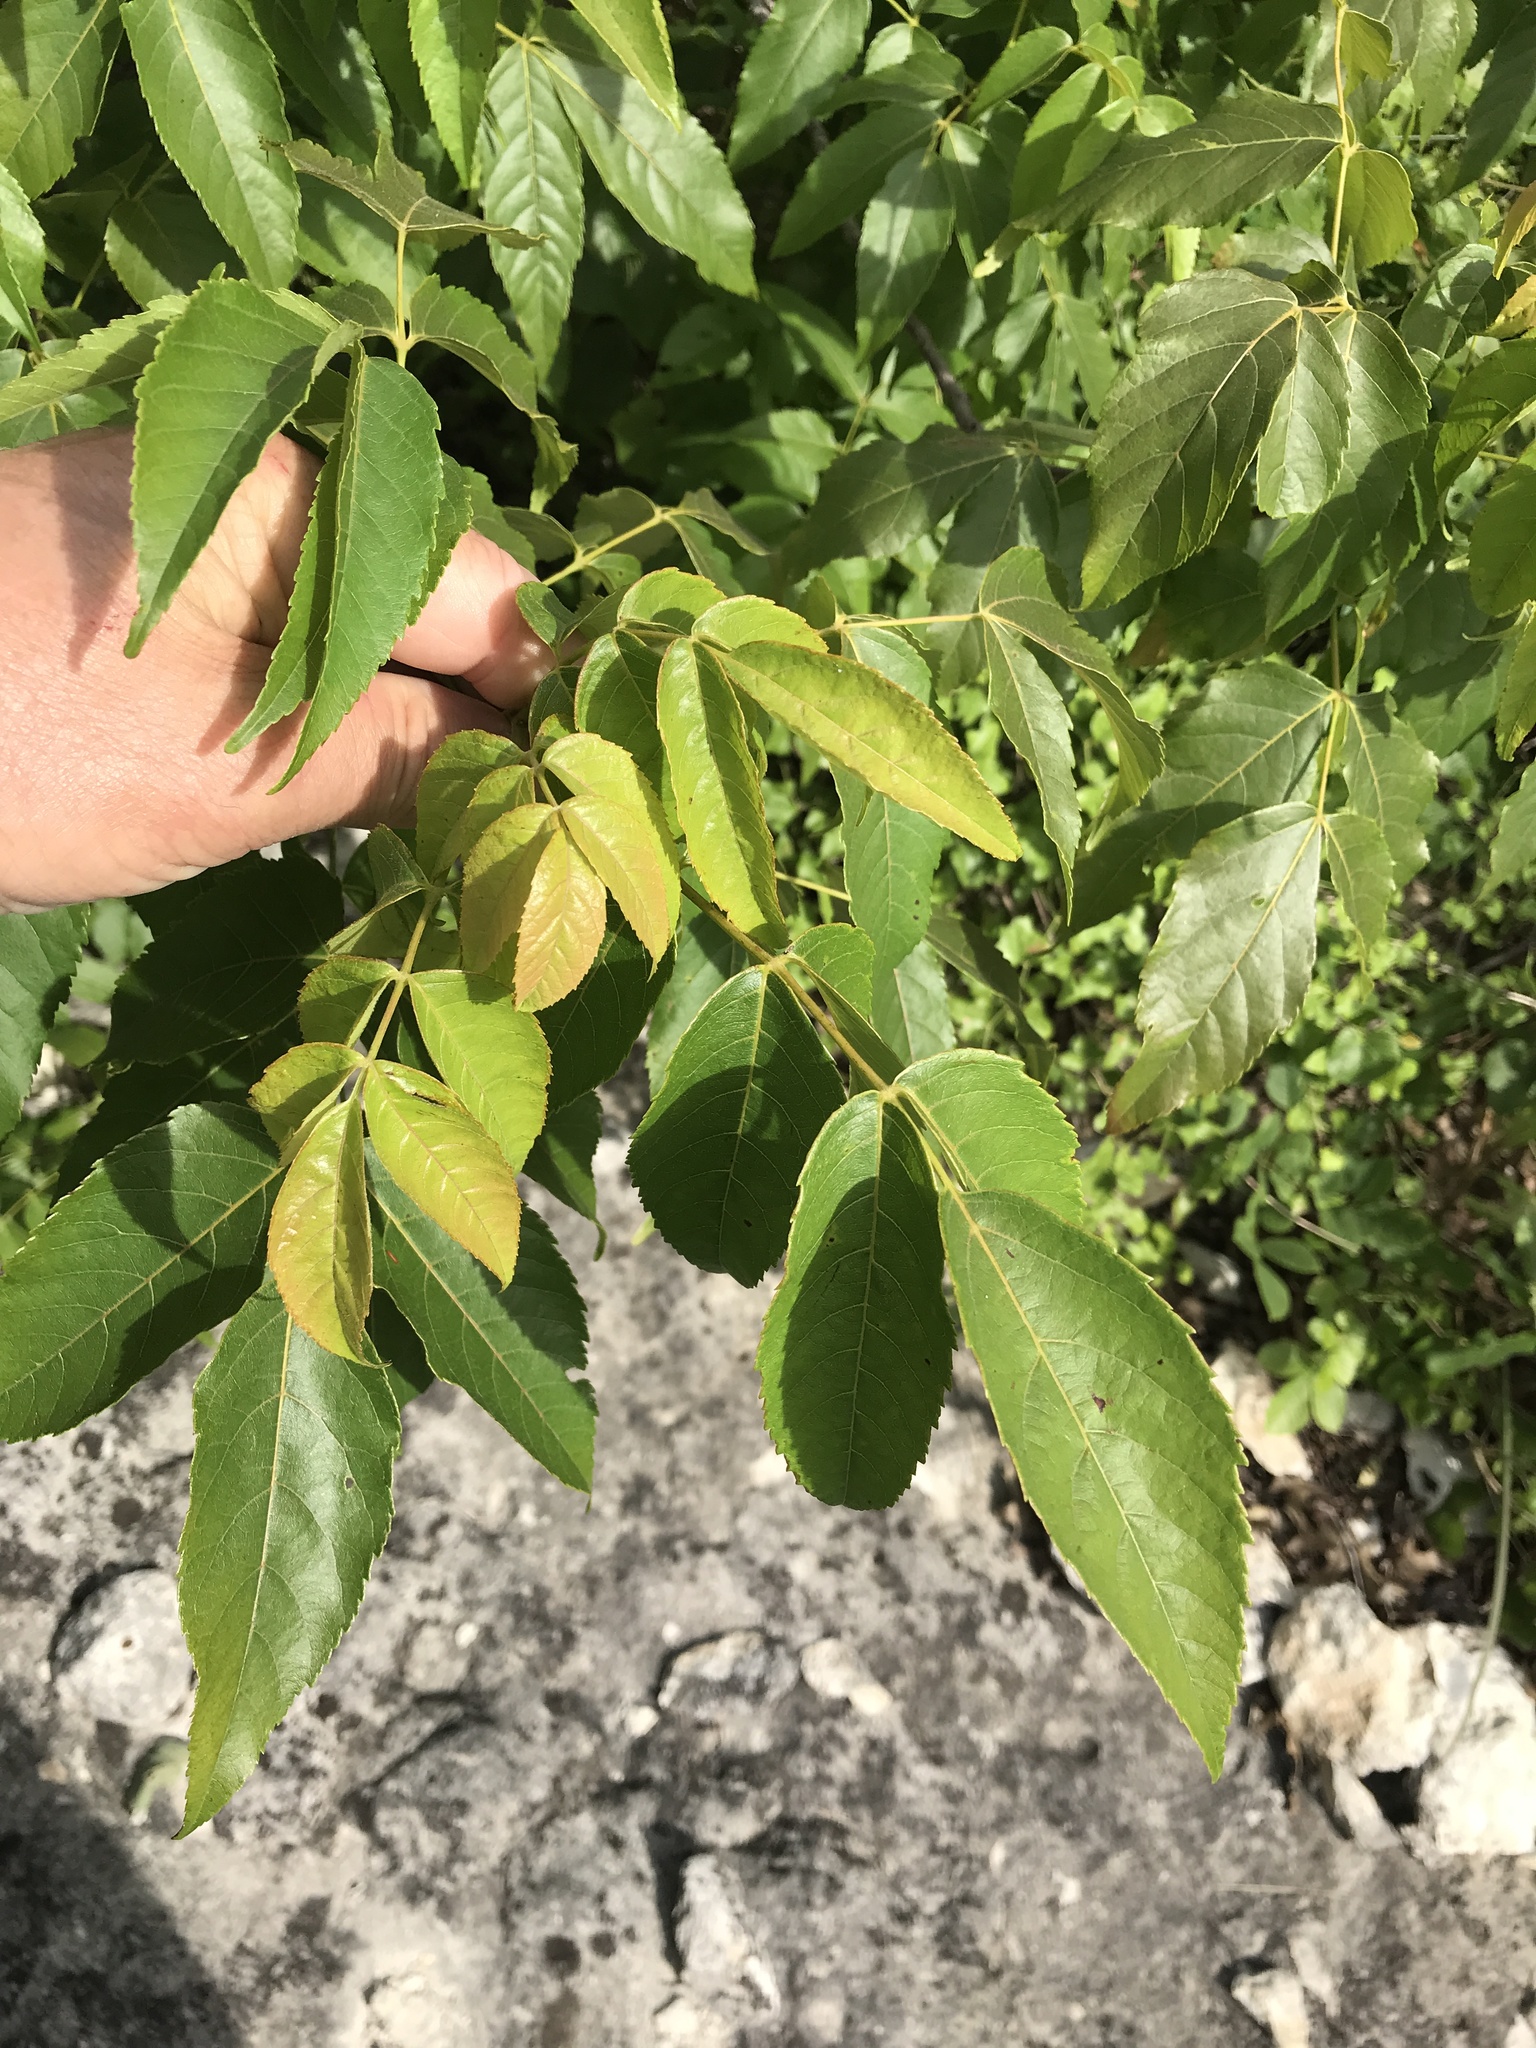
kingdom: Plantae
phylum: Tracheophyta
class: Magnoliopsida
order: Sapindales
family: Sapindaceae
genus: Ungnadia
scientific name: Ungnadia speciosa
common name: Texas-buckeye
